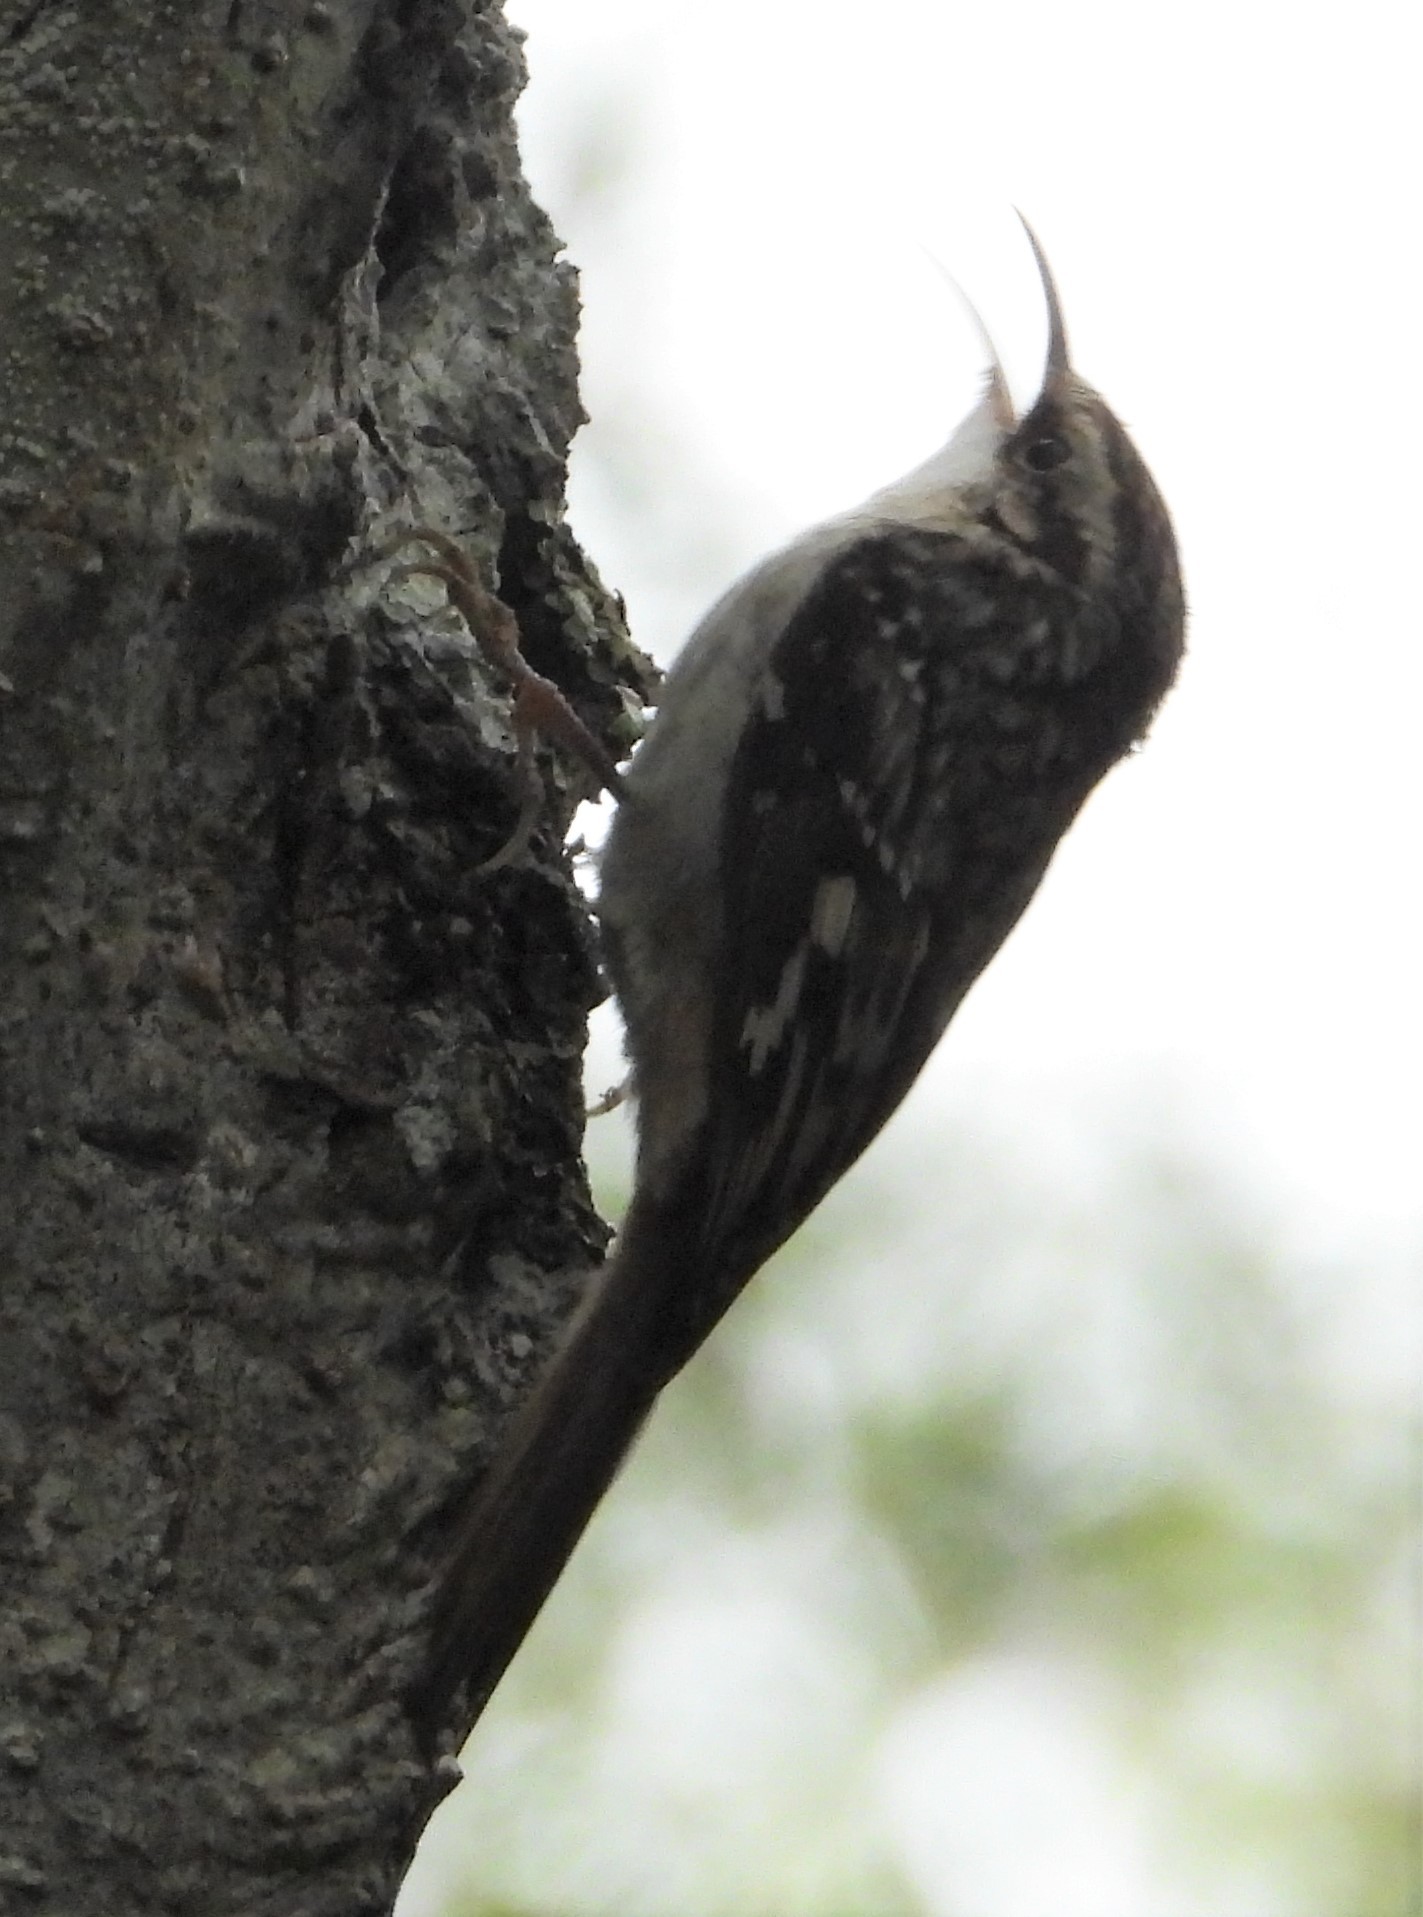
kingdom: Animalia
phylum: Chordata
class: Aves
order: Passeriformes
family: Certhiidae
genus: Certhia
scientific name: Certhia americana
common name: Brown creeper
